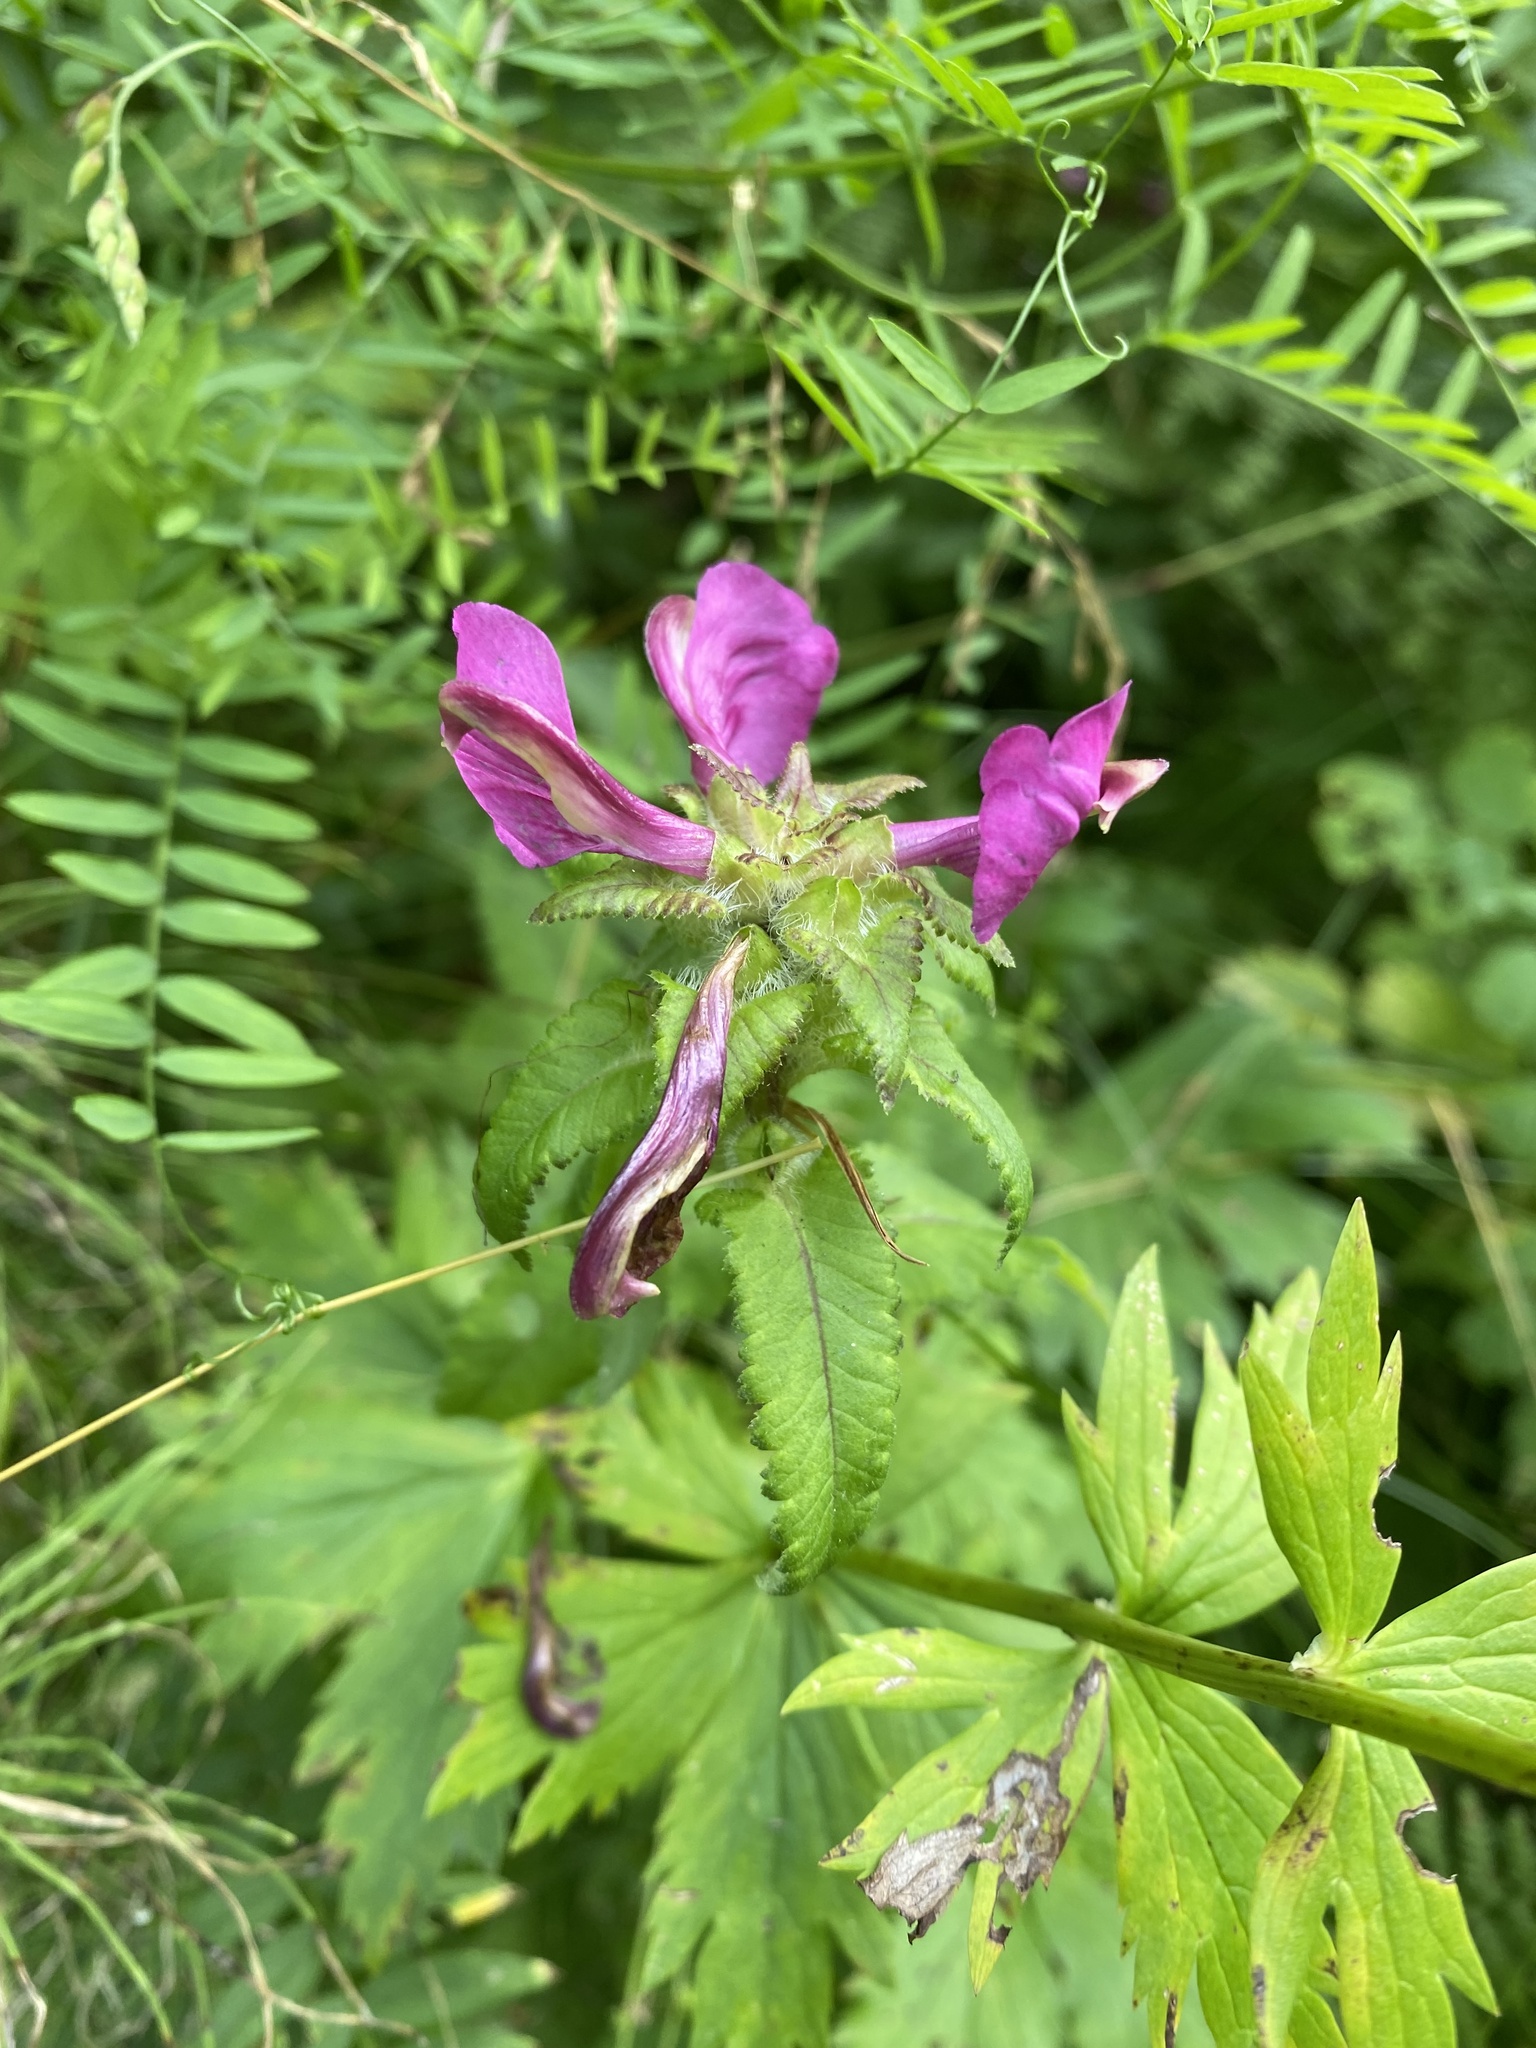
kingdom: Plantae
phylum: Tracheophyta
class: Magnoliopsida
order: Lamiales
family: Orobanchaceae
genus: Pedicularis
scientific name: Pedicularis resupinata
